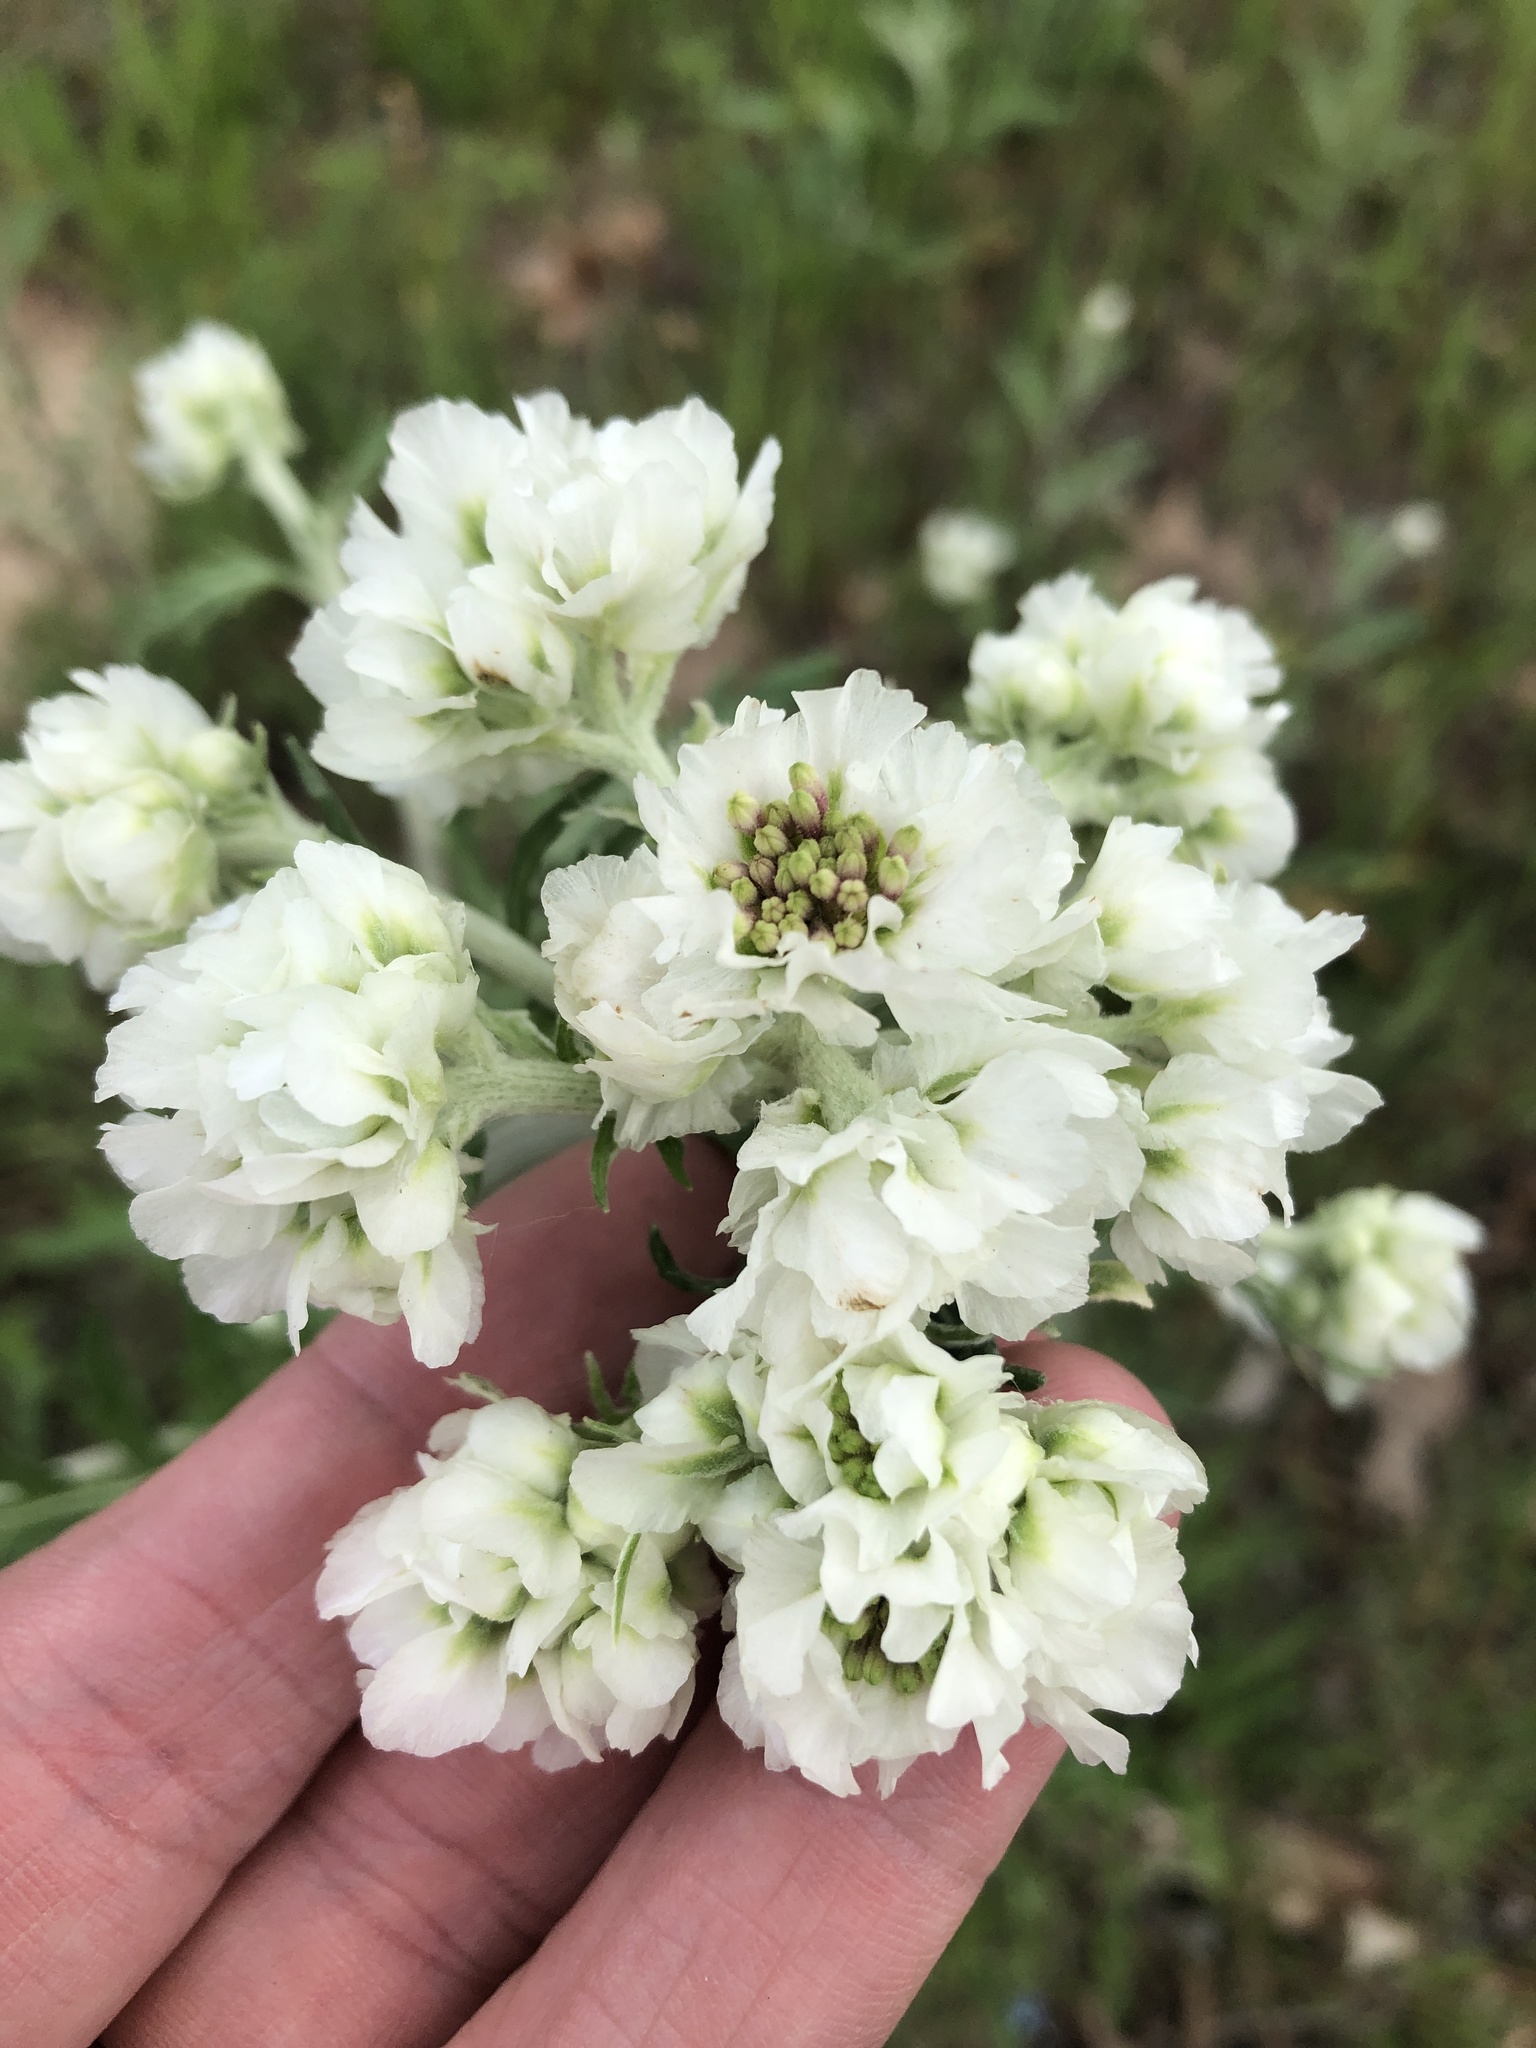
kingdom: Plantae
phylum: Tracheophyta
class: Magnoliopsida
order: Asterales
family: Asteraceae
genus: Hymenopappus
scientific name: Hymenopappus artemisiifolius
